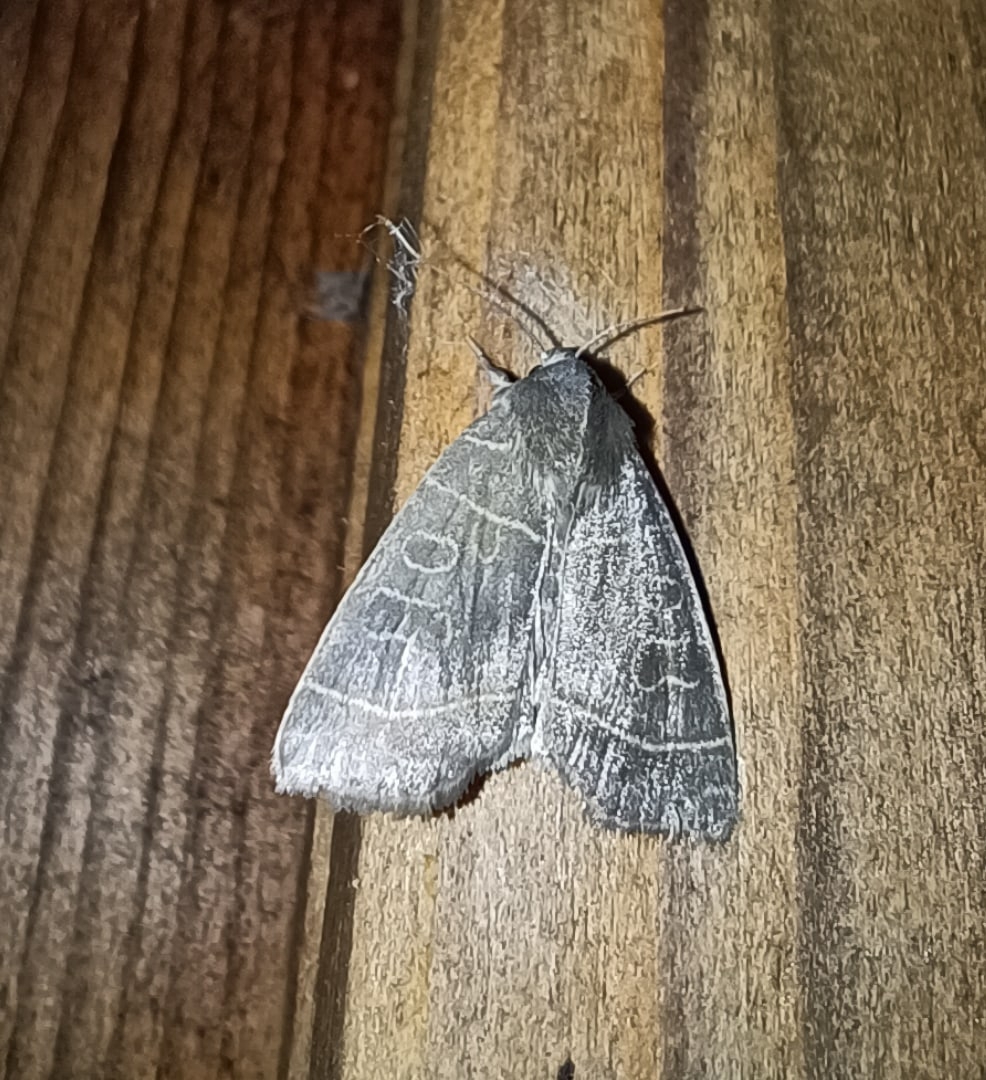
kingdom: Animalia
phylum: Arthropoda
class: Insecta
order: Lepidoptera
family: Noctuidae
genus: Ipimorpha
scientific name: Ipimorpha subtusa
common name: Olive
